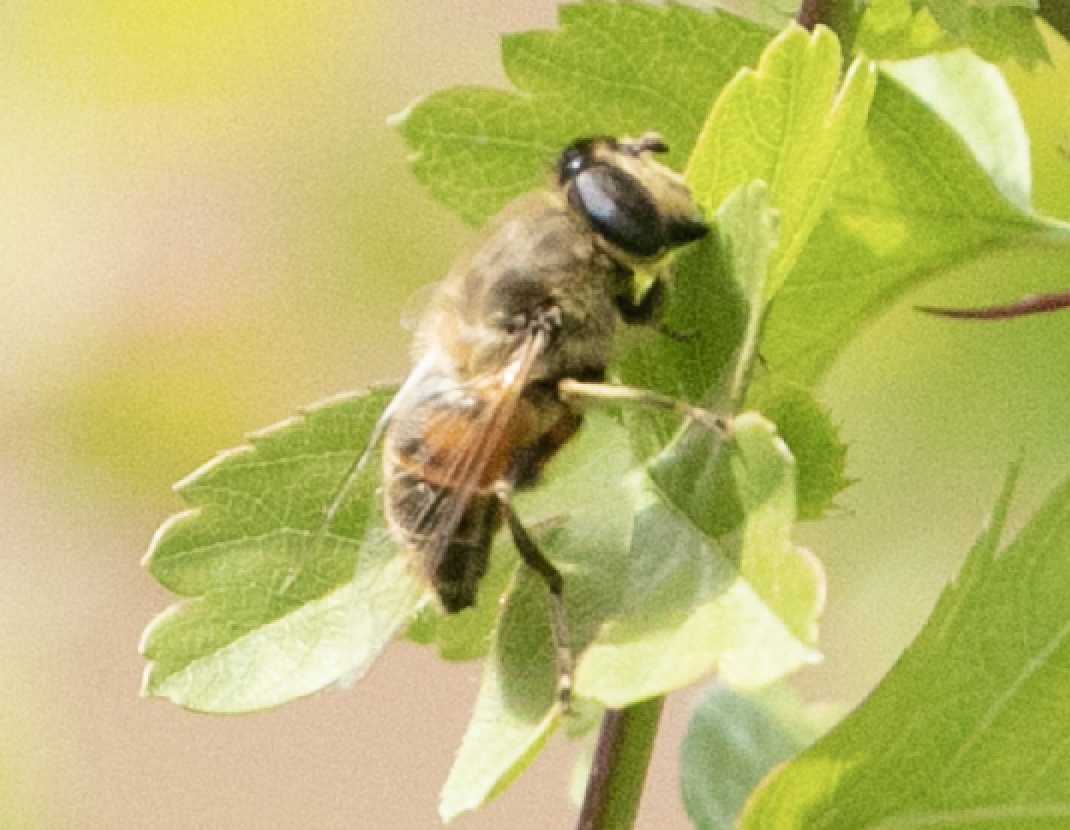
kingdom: Animalia
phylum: Arthropoda
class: Insecta
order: Diptera
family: Syrphidae
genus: Eristalis
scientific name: Eristalis tenax
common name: Drone fly
